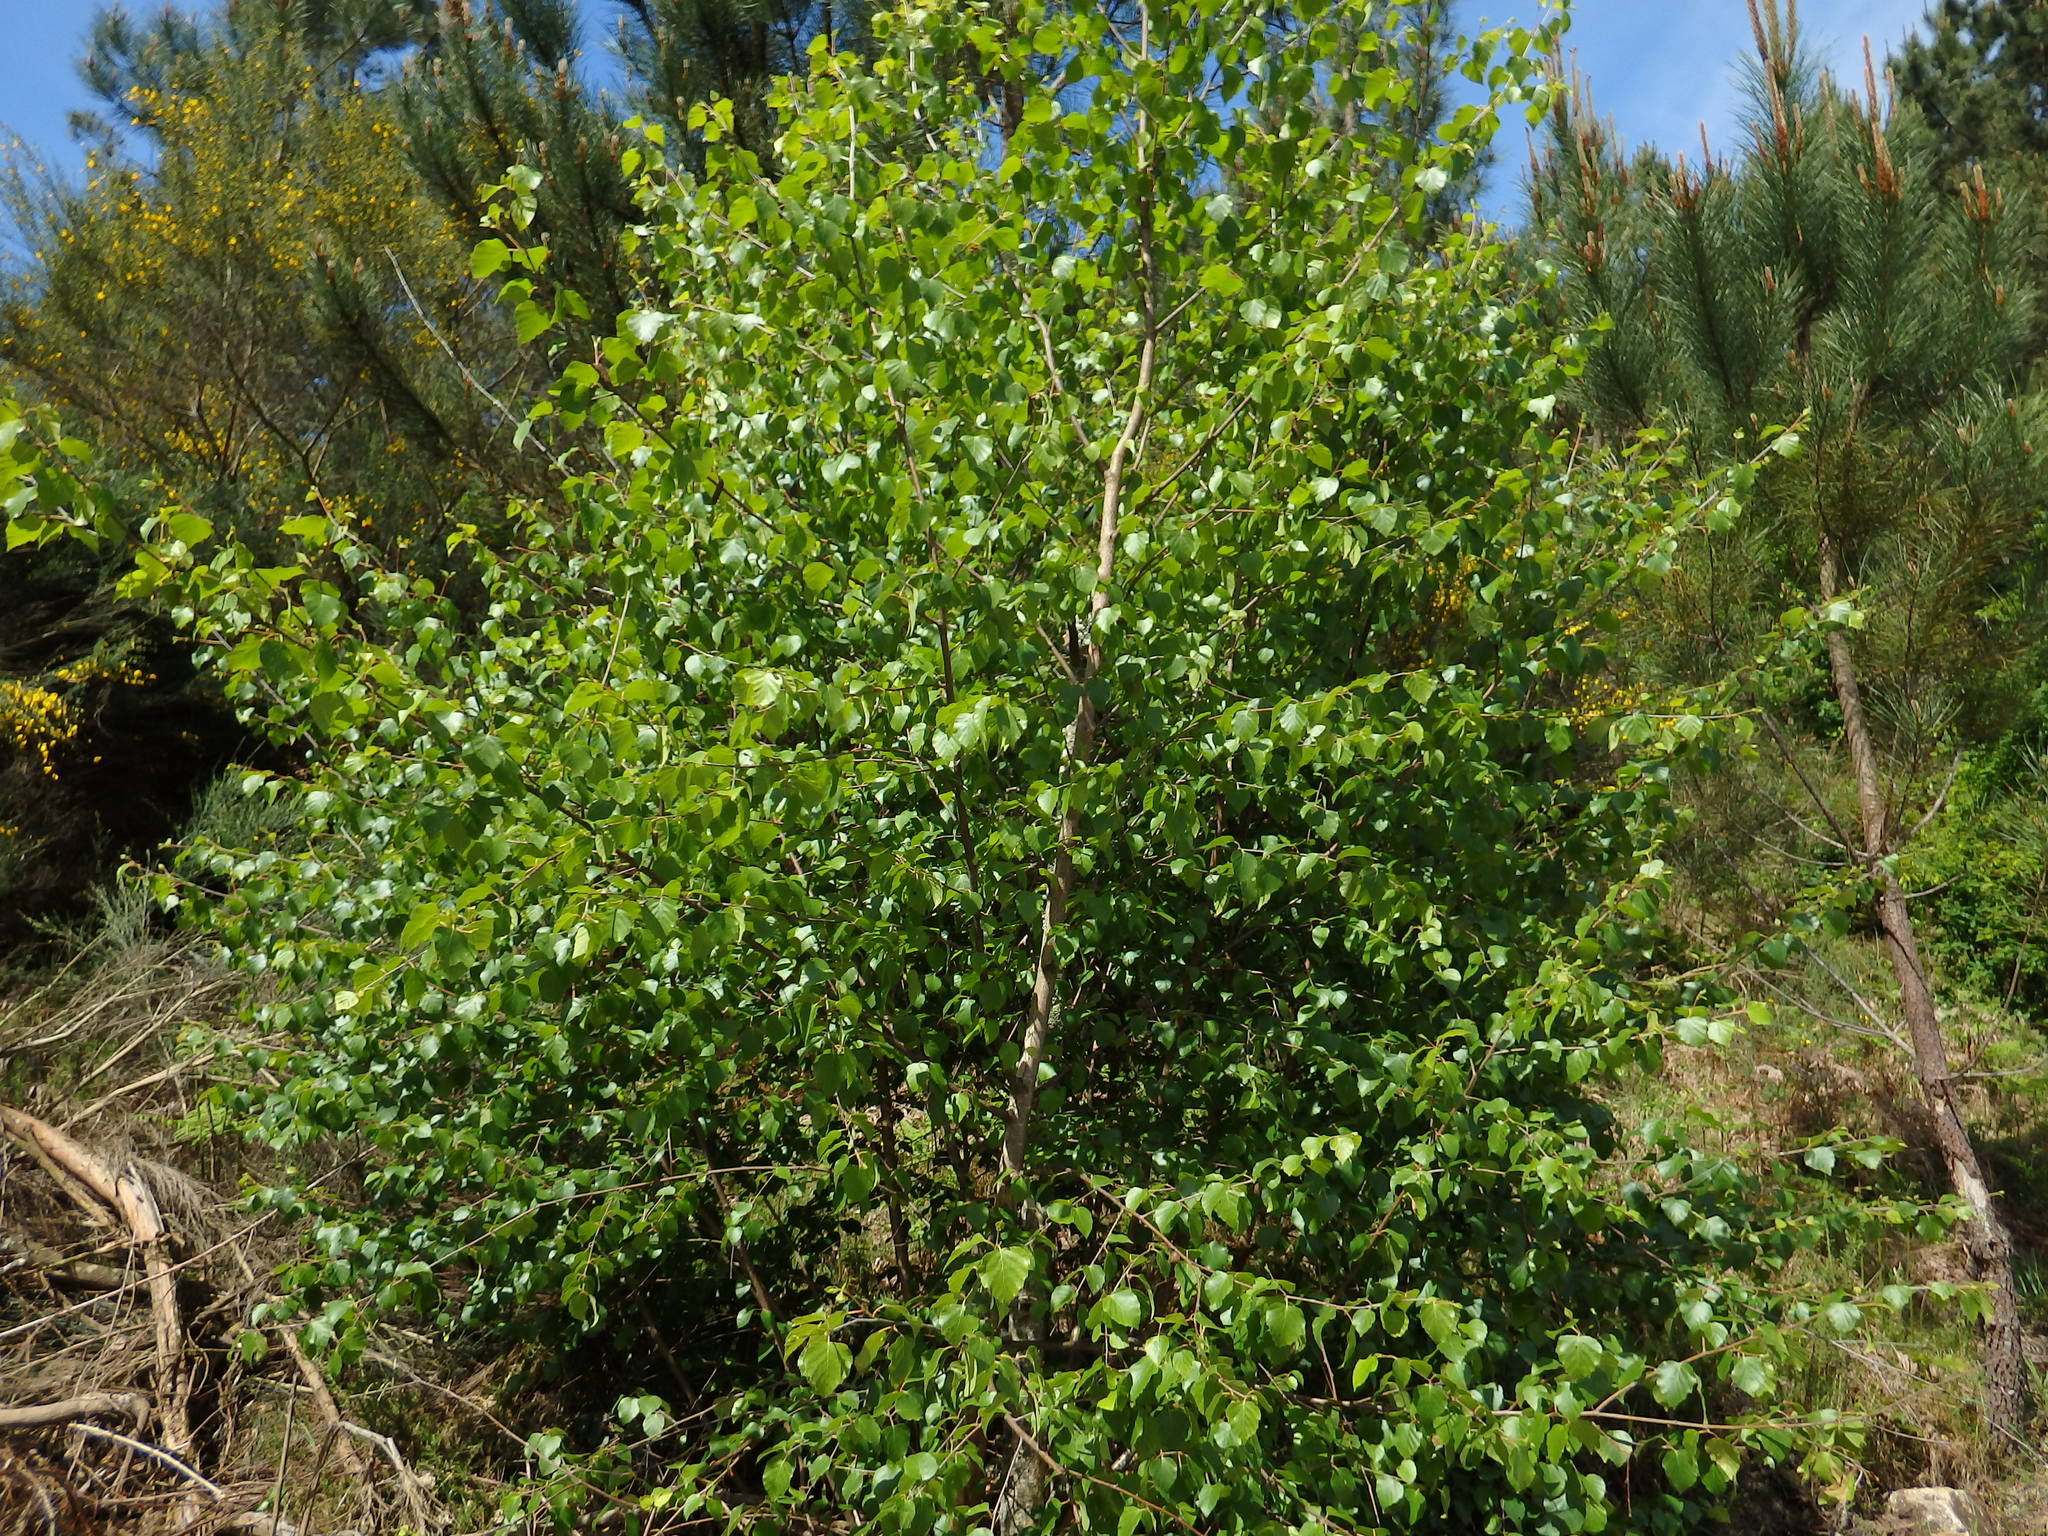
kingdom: Plantae
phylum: Tracheophyta
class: Magnoliopsida
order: Fagales
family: Betulaceae
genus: Betula
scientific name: Betula pubescens
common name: Downy birch
